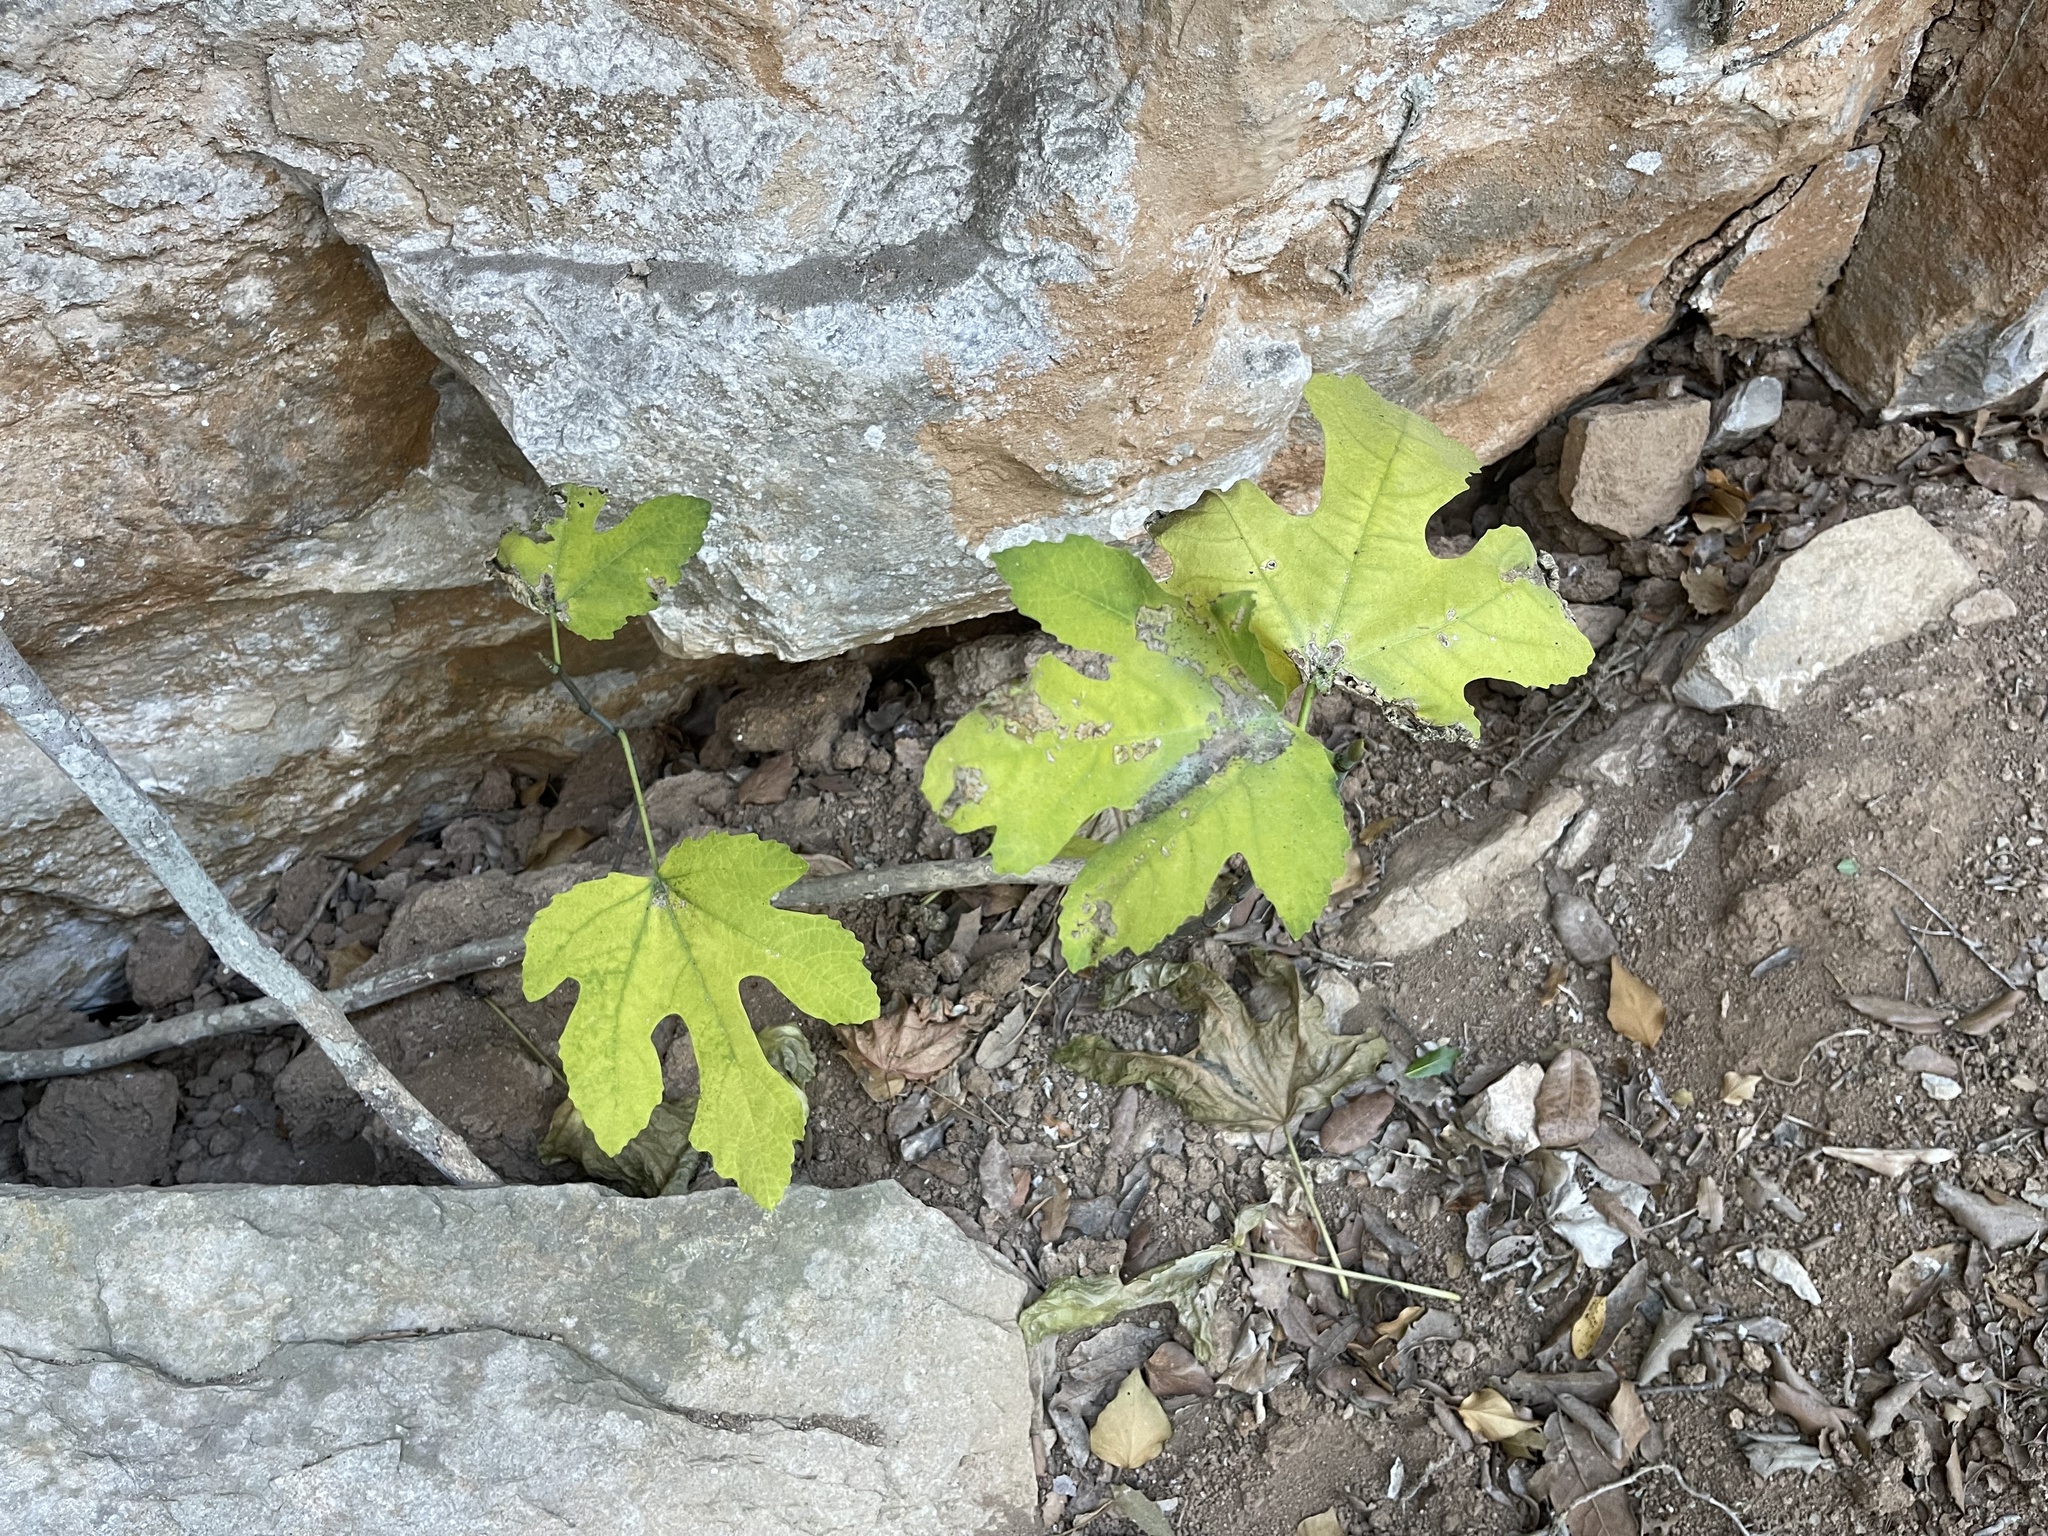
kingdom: Plantae
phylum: Tracheophyta
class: Magnoliopsida
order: Rosales
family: Moraceae
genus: Ficus
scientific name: Ficus carica
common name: Fig
